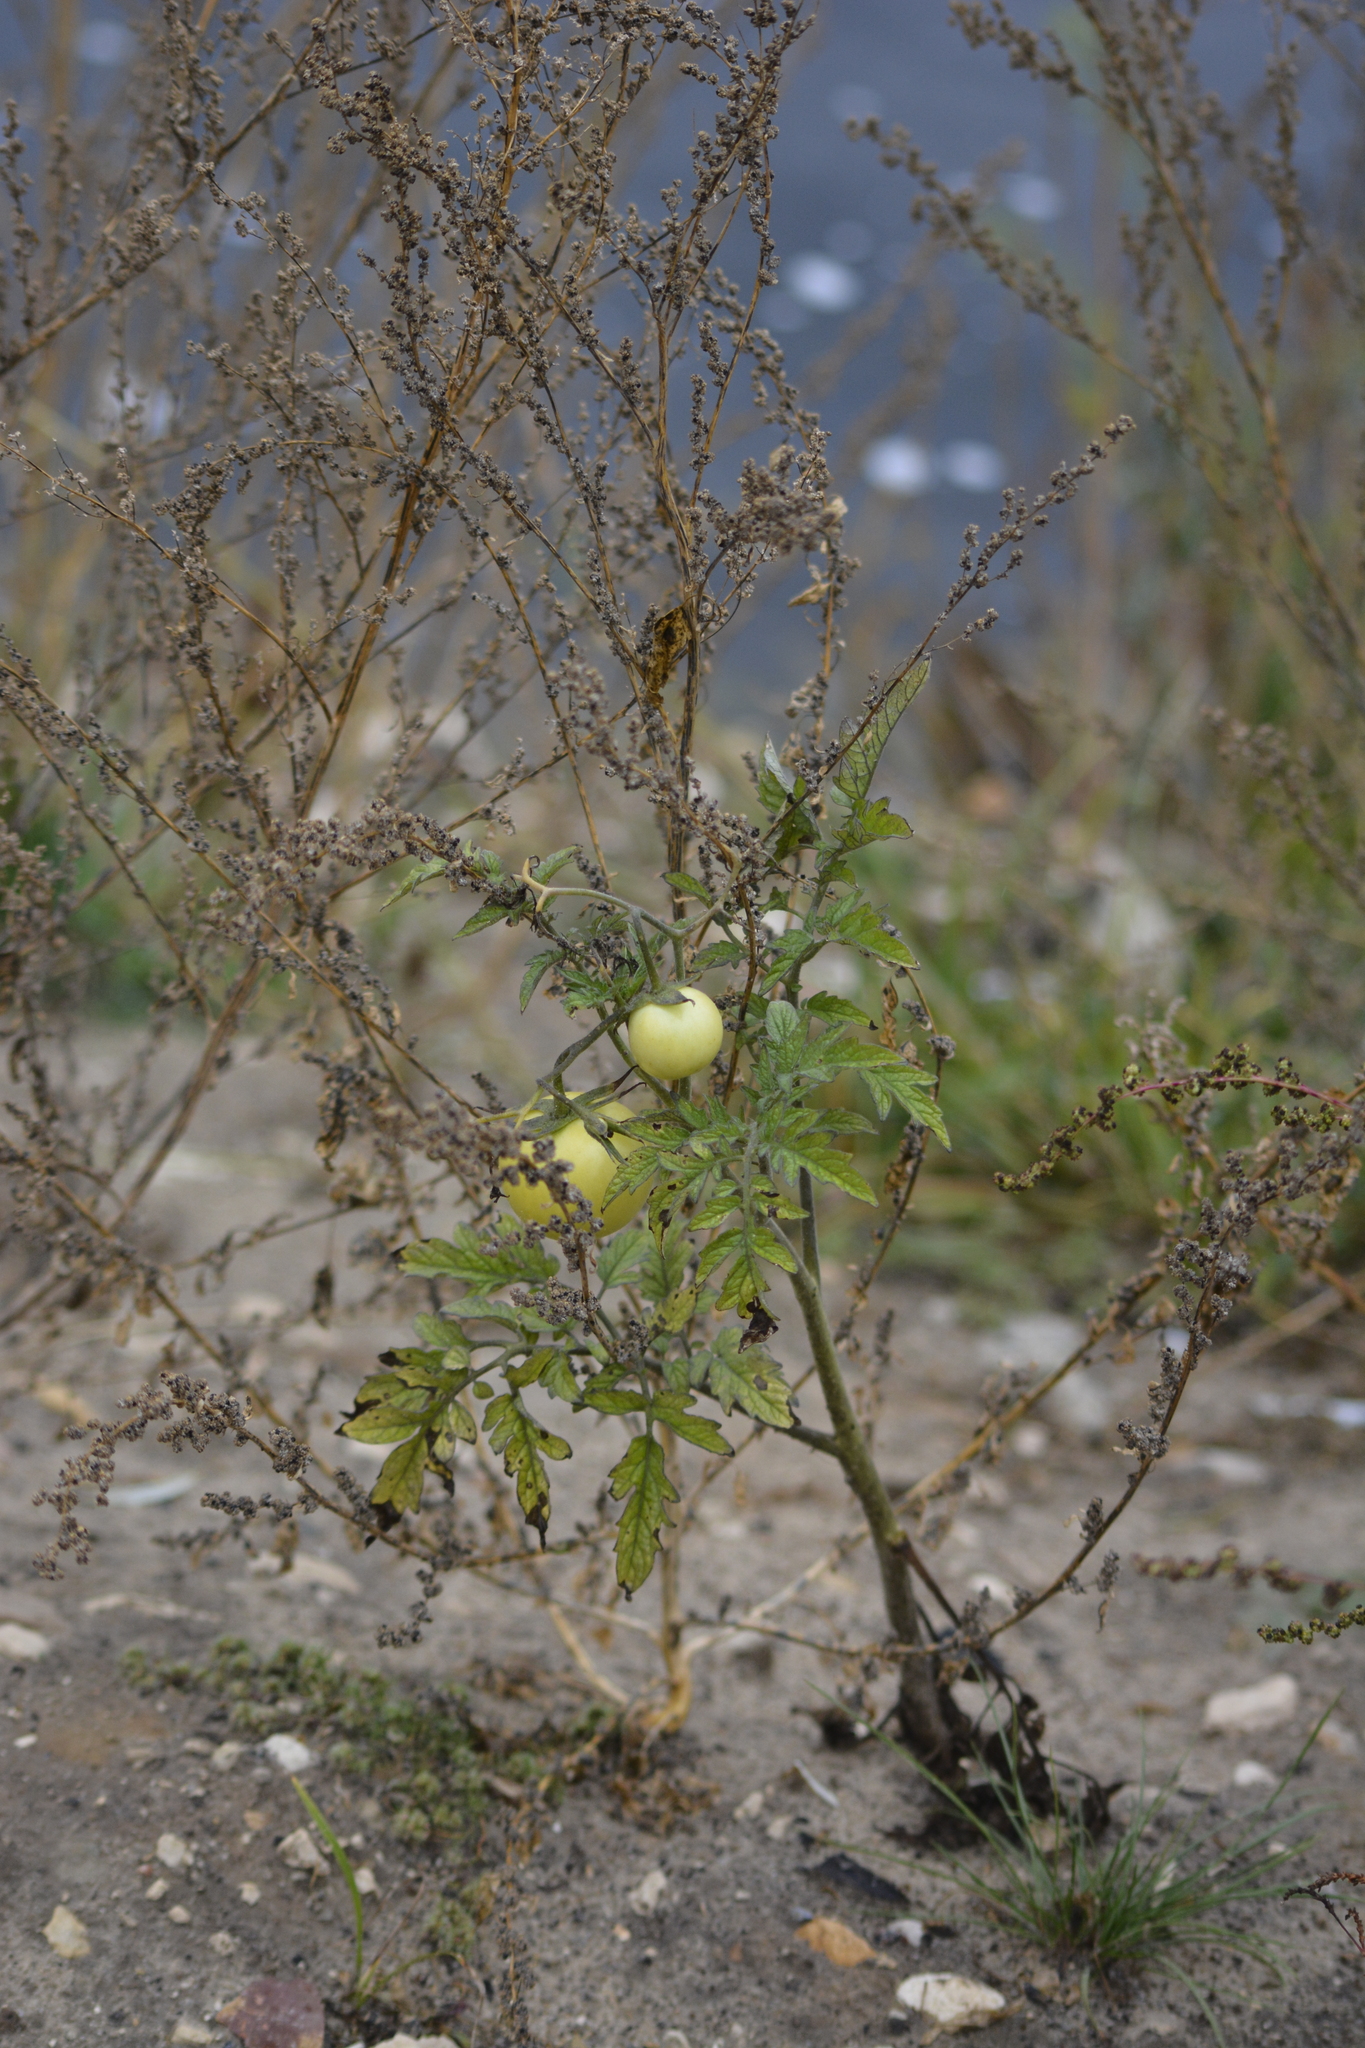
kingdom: Plantae
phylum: Tracheophyta
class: Magnoliopsida
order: Solanales
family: Solanaceae
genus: Solanum
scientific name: Solanum lycopersicum
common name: Garden tomato
